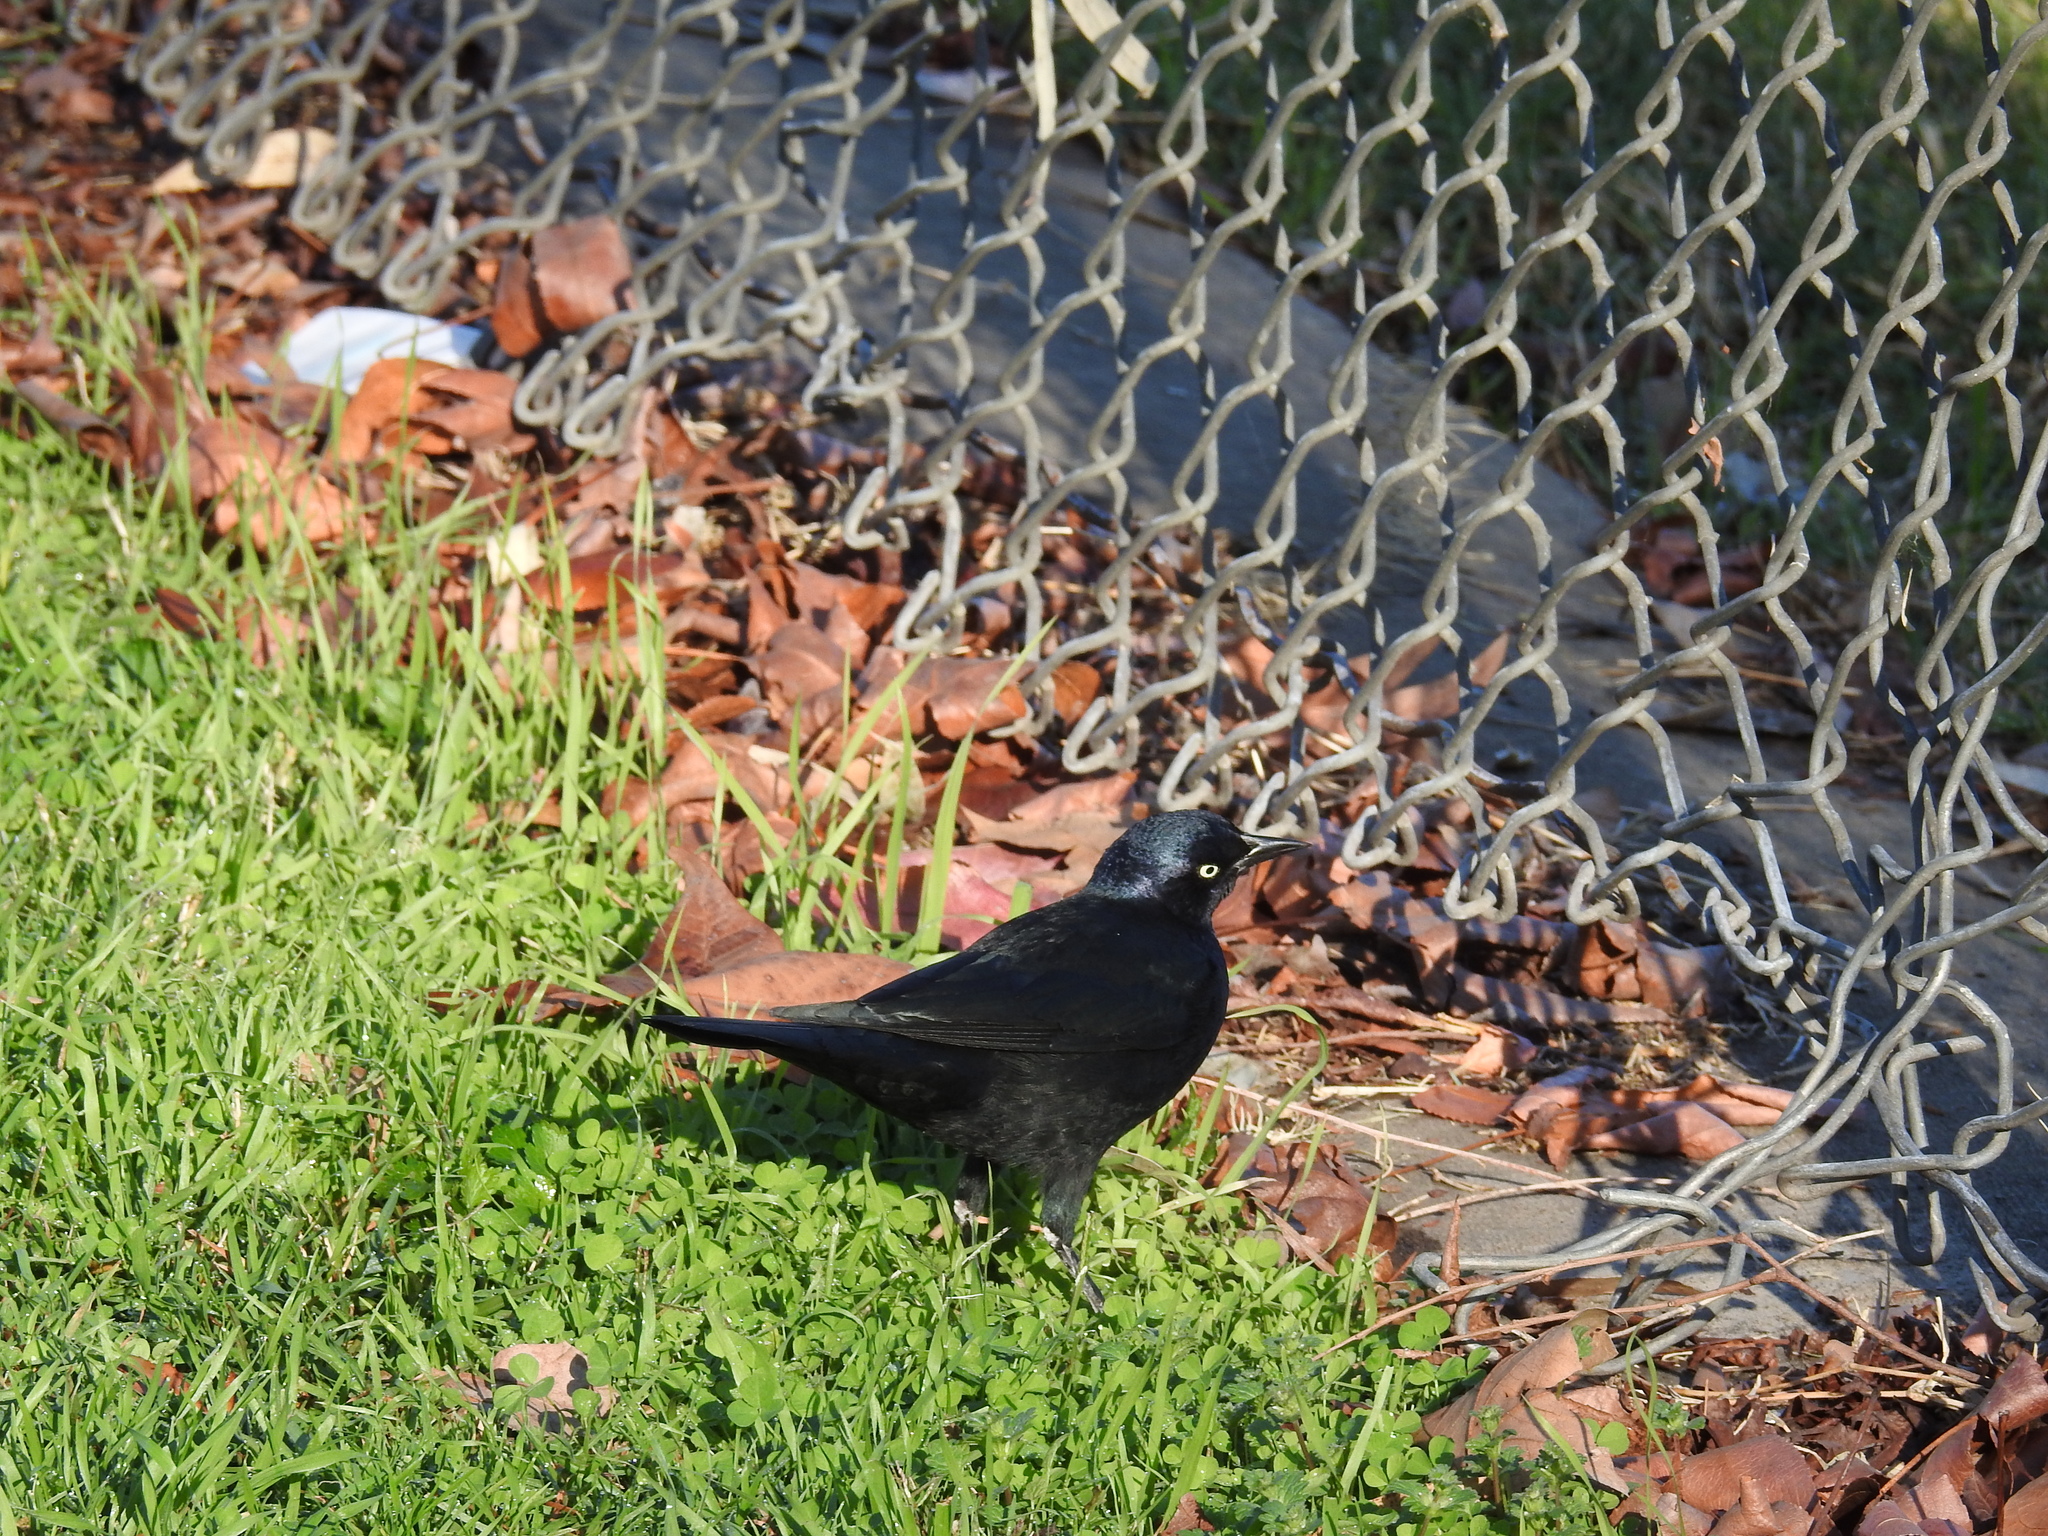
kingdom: Animalia
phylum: Chordata
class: Aves
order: Passeriformes
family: Icteridae
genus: Euphagus
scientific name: Euphagus cyanocephalus
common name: Brewer's blackbird
